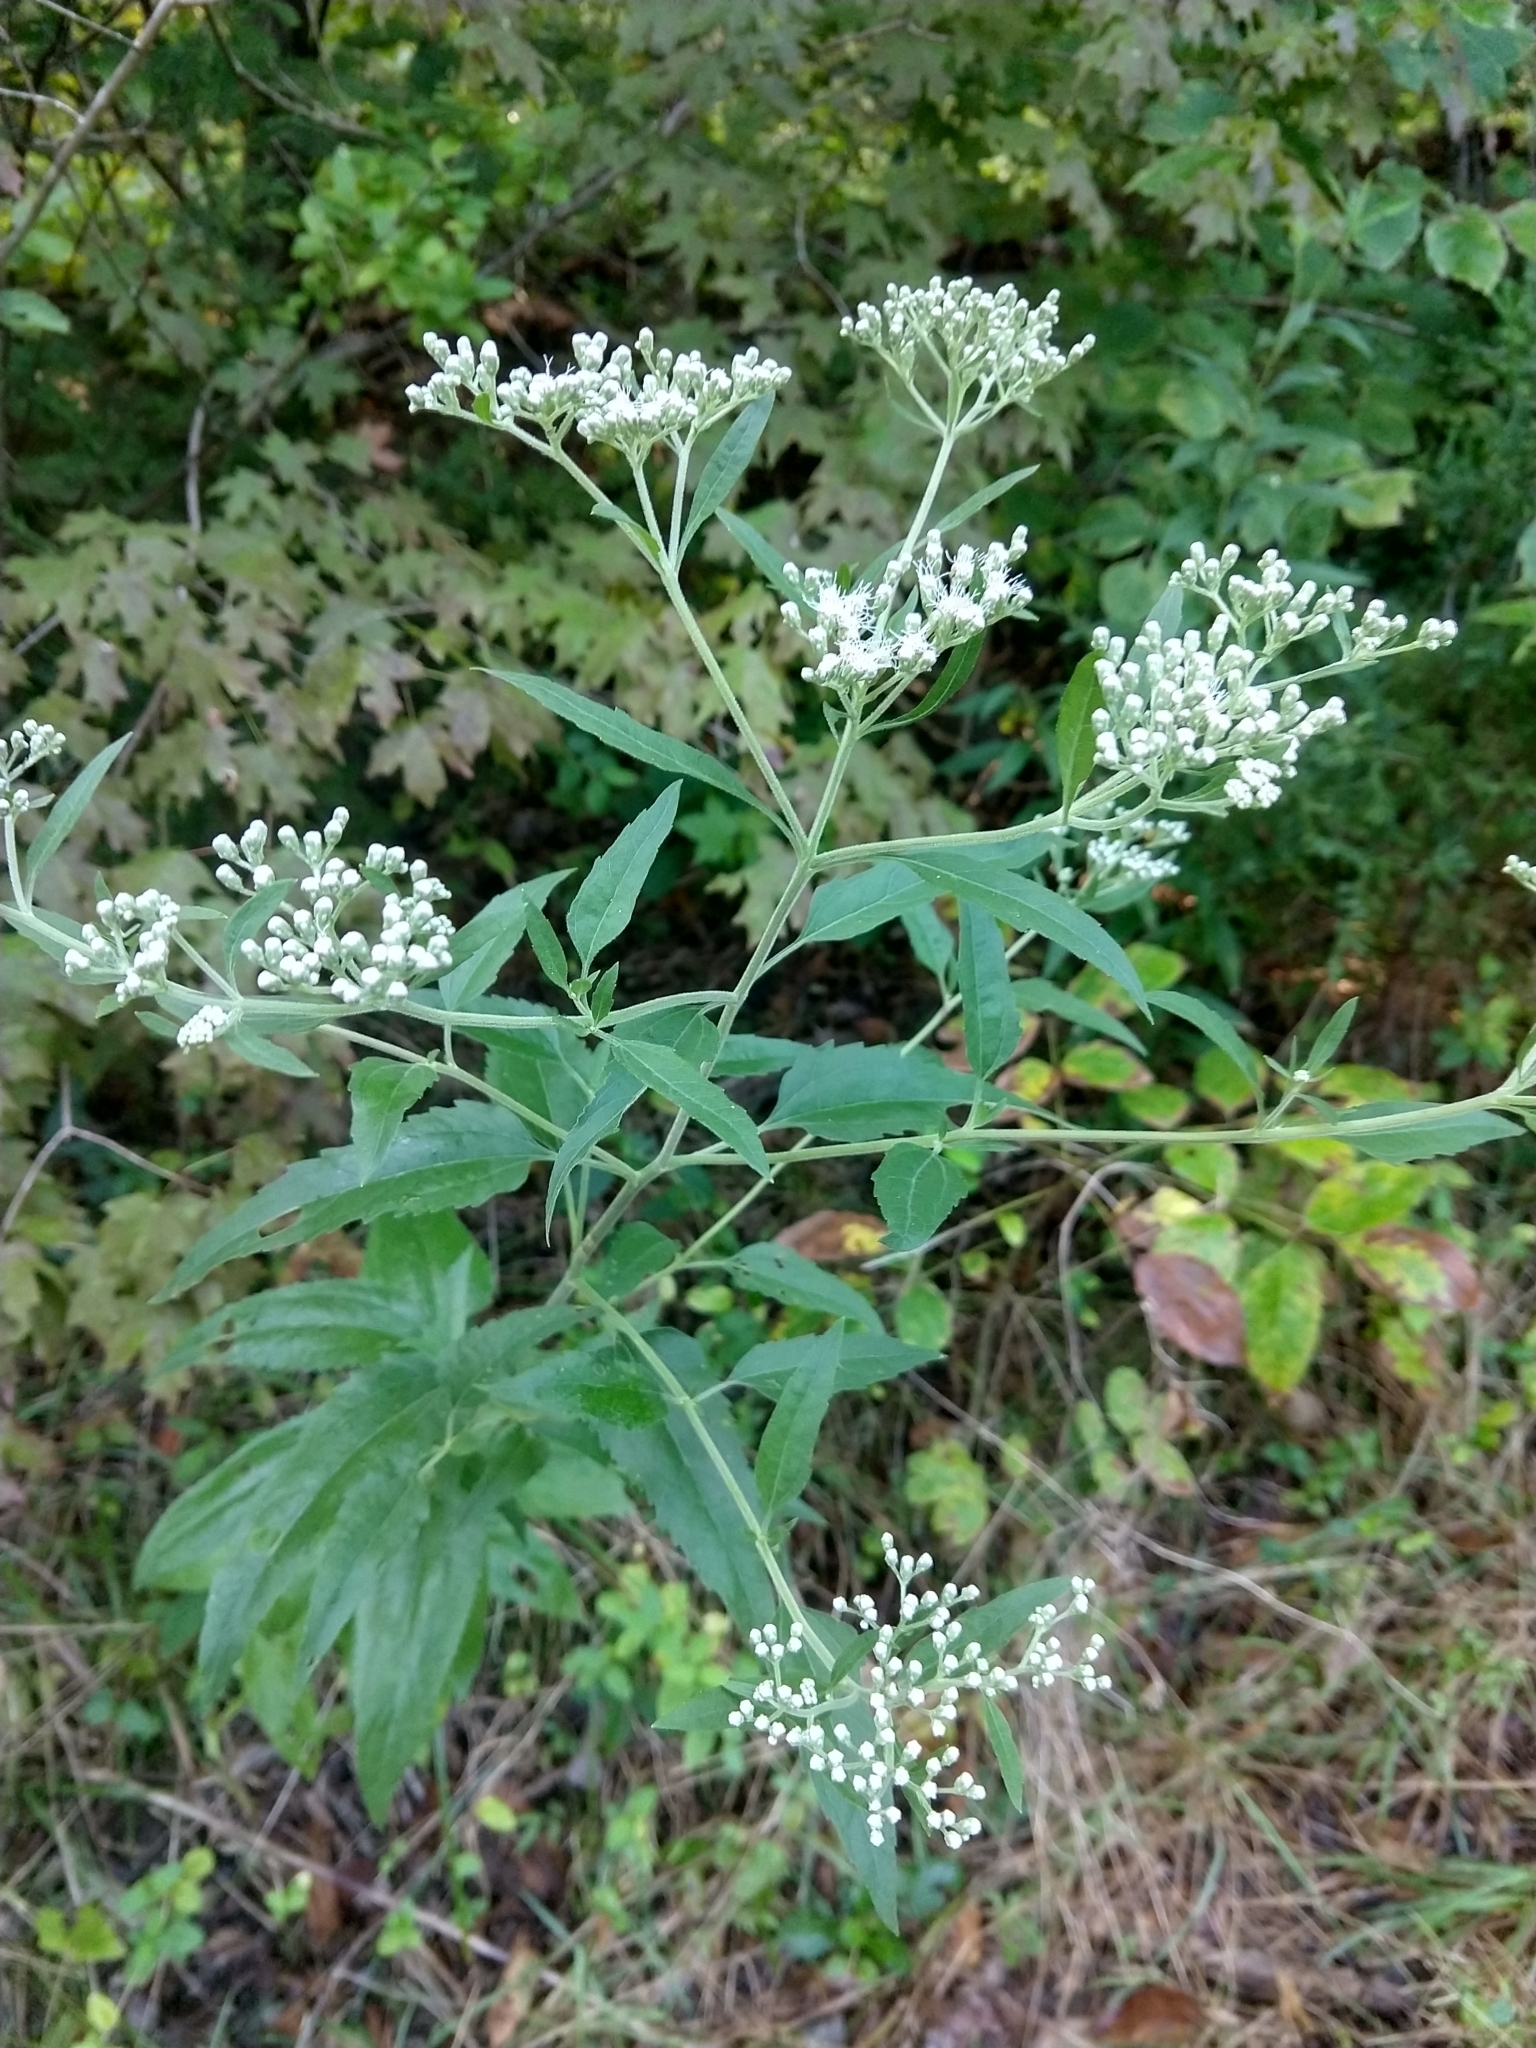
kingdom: Plantae
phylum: Tracheophyta
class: Magnoliopsida
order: Asterales
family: Asteraceae
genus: Eupatorium
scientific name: Eupatorium serotinum
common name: Late boneset
